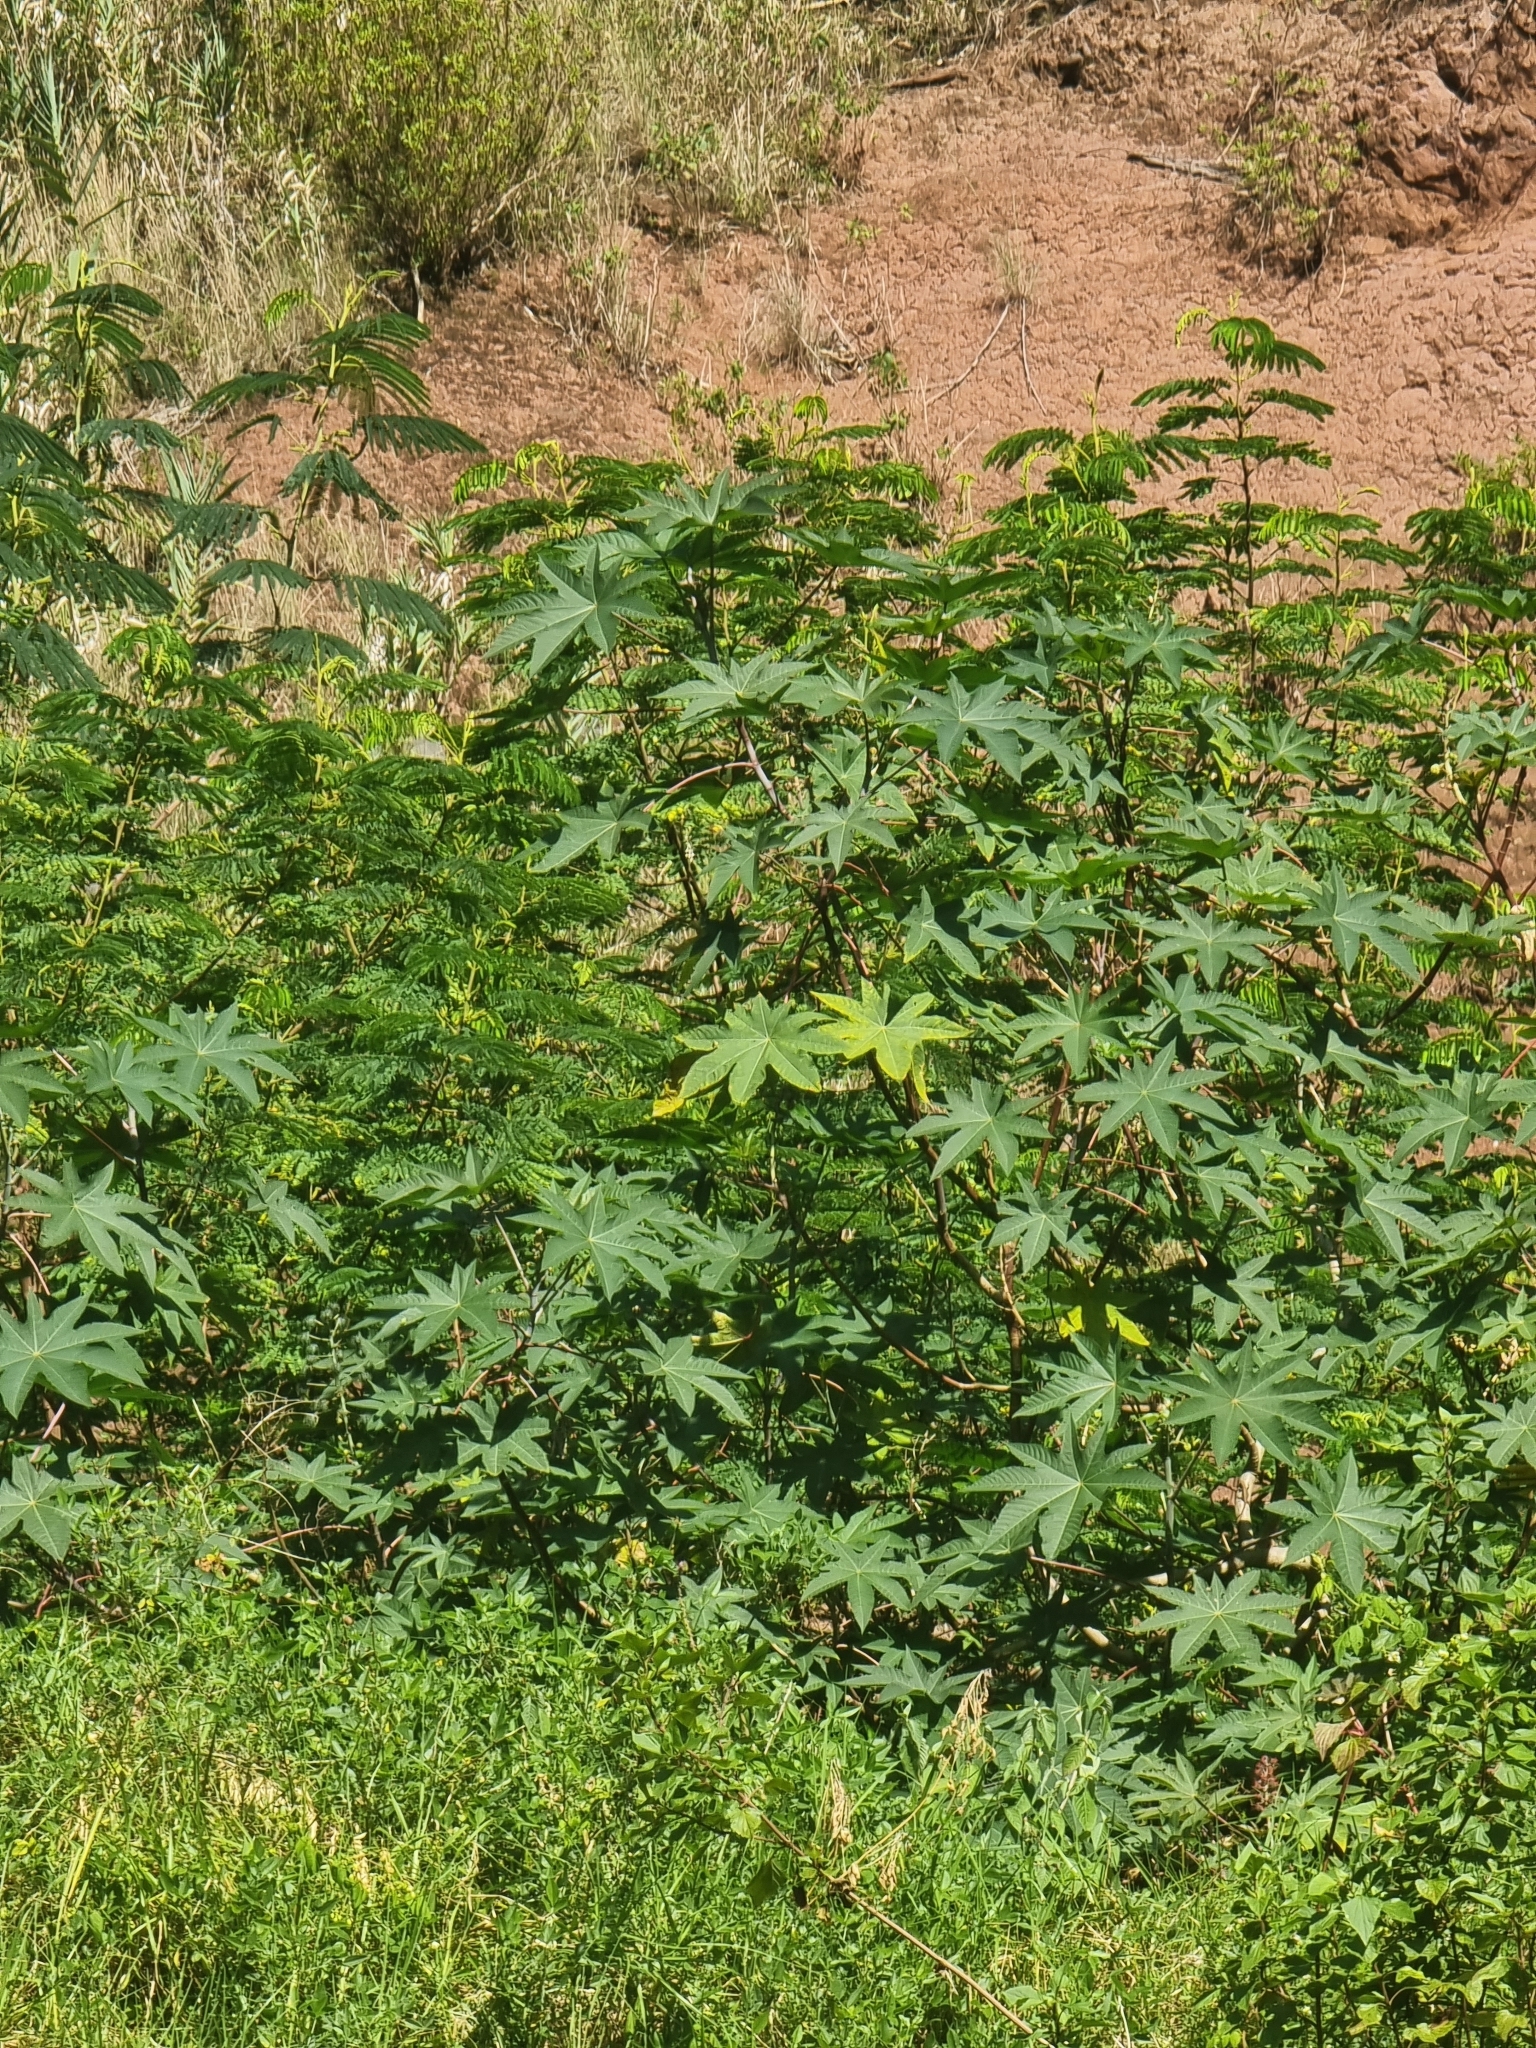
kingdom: Plantae
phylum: Tracheophyta
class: Magnoliopsida
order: Malpighiales
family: Euphorbiaceae
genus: Ricinus
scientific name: Ricinus communis
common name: Castor-oil-plant
